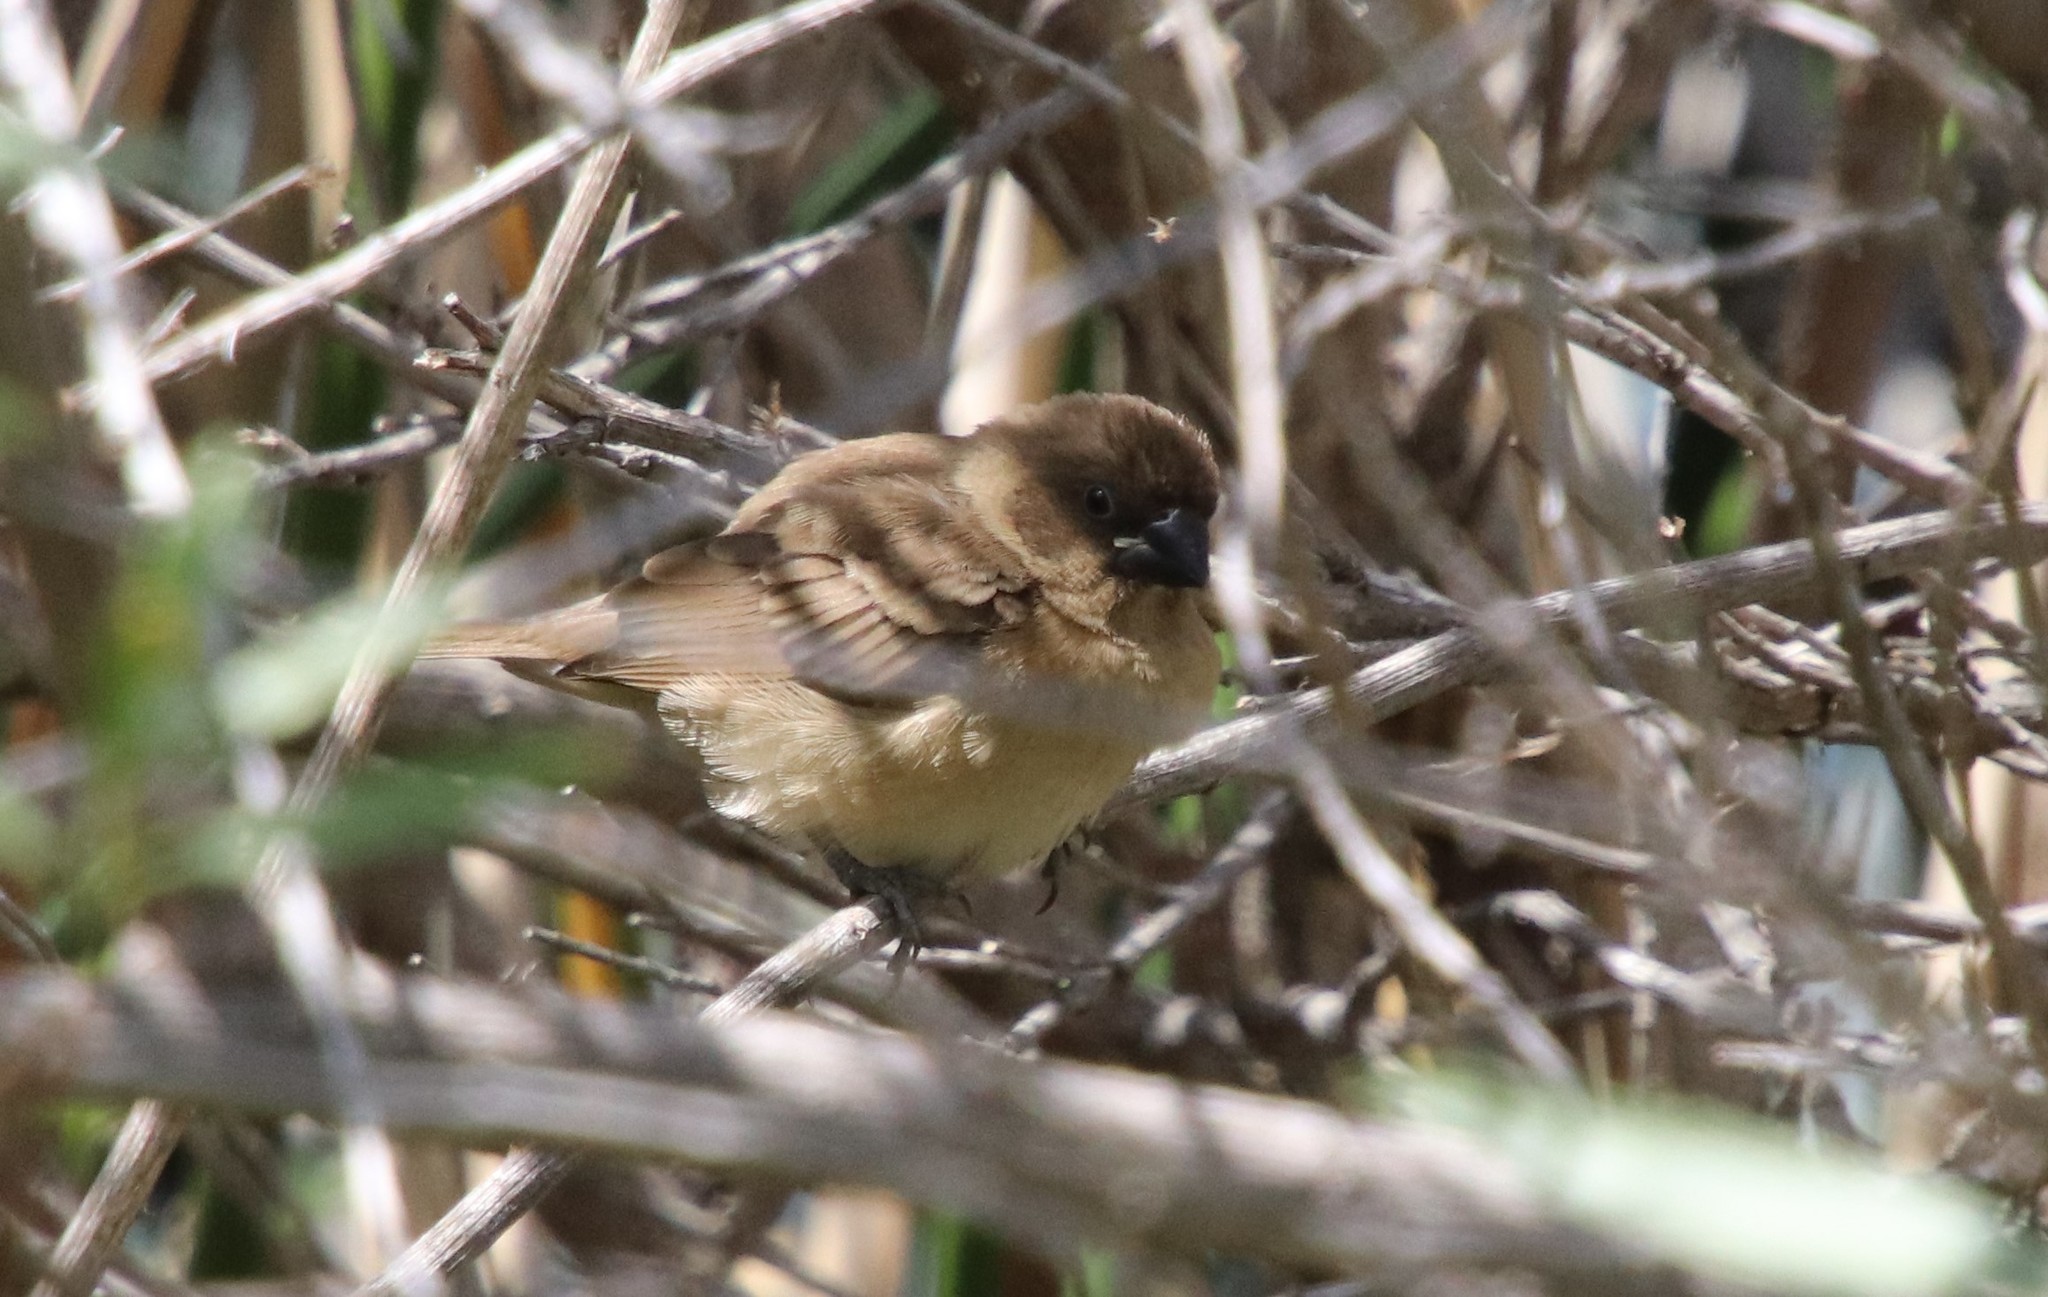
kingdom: Animalia
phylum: Chordata
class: Aves
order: Passeriformes
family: Estrildidae
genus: Lonchura
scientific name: Lonchura punctulata
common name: Scaly-breasted munia
